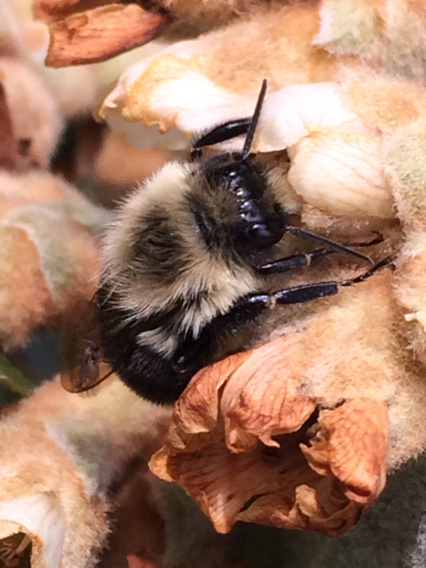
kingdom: Animalia
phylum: Arthropoda
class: Insecta
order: Hymenoptera
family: Apidae
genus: Bombus
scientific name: Bombus impatiens
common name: Common eastern bumble bee
